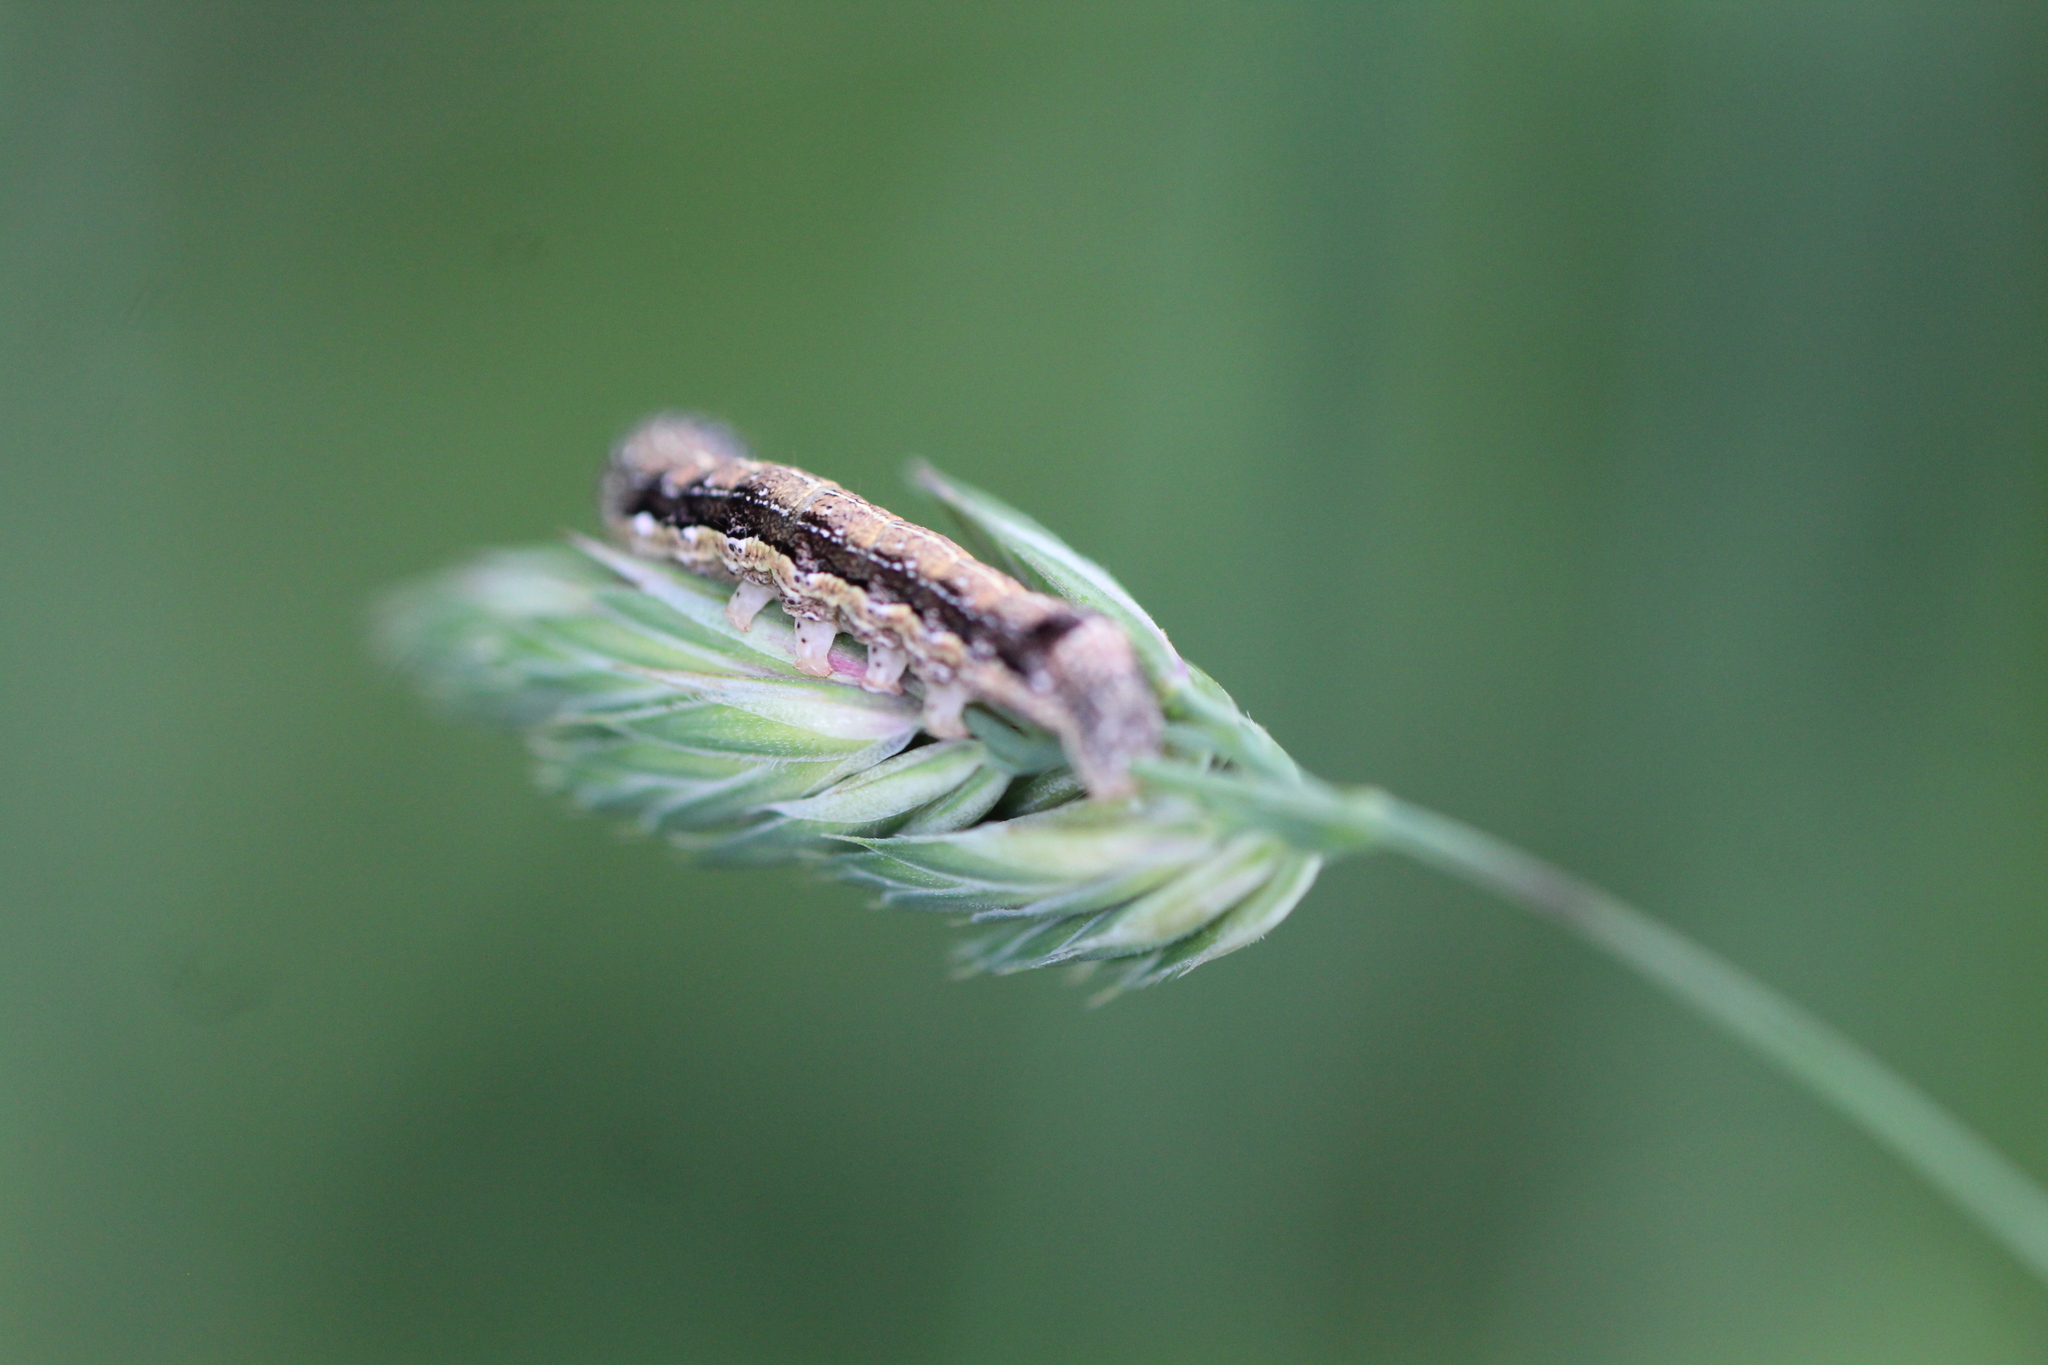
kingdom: Animalia
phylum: Arthropoda
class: Insecta
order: Lepidoptera
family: Noctuidae
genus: Anorthoa
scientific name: Anorthoa munda
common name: Twin-spotted quaker
